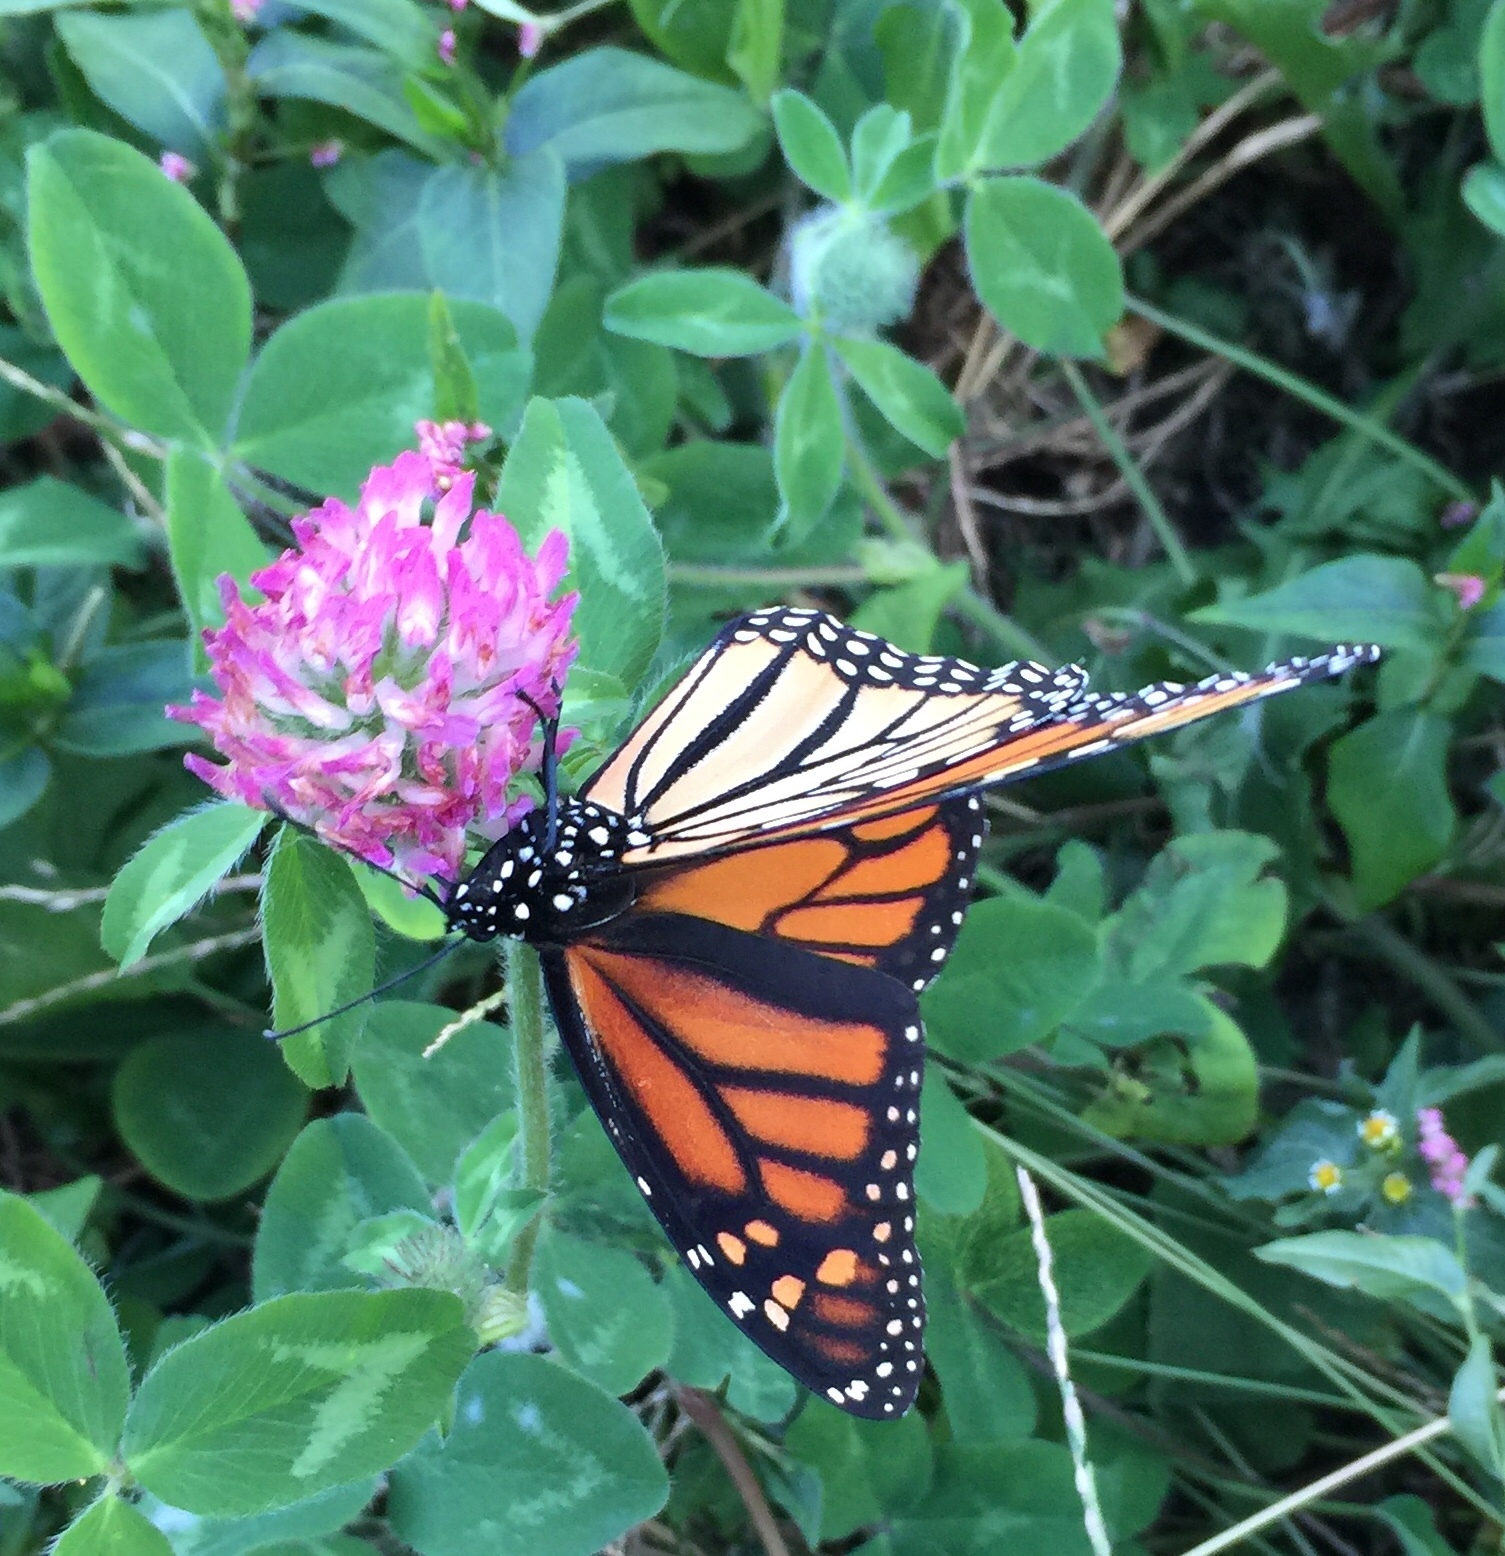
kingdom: Animalia
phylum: Arthropoda
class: Insecta
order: Lepidoptera
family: Nymphalidae
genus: Danaus
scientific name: Danaus plexippus
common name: Monarch
